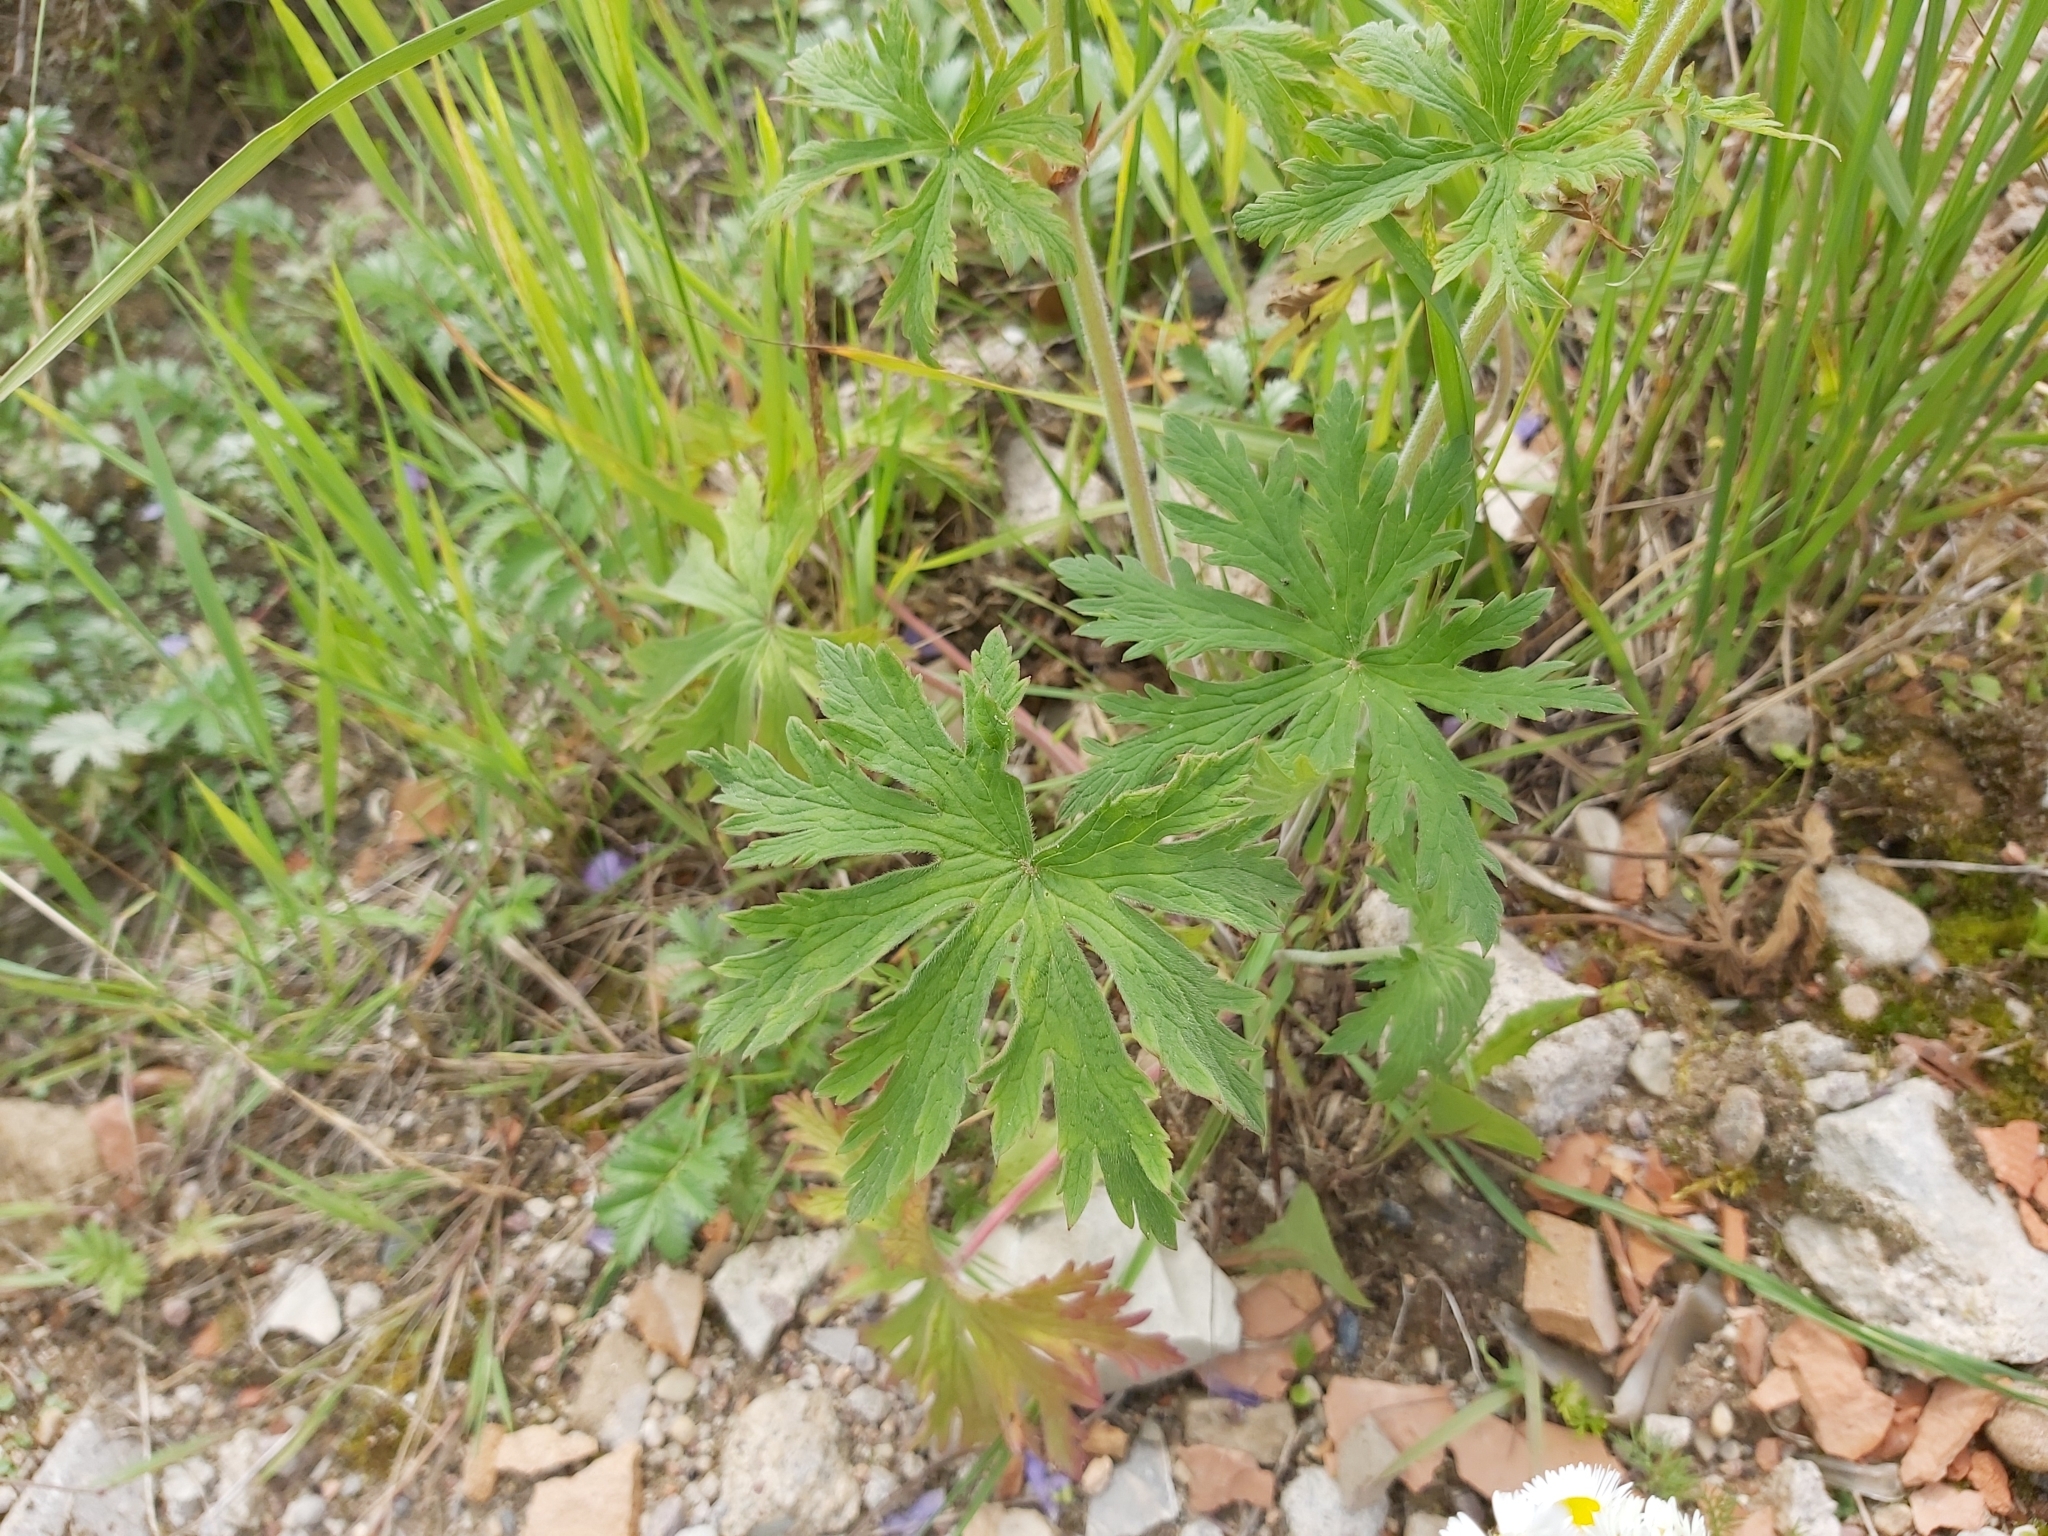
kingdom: Plantae
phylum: Tracheophyta
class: Magnoliopsida
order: Geraniales
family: Geraniaceae
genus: Geranium
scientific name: Geranium pratense
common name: Meadow crane's-bill
